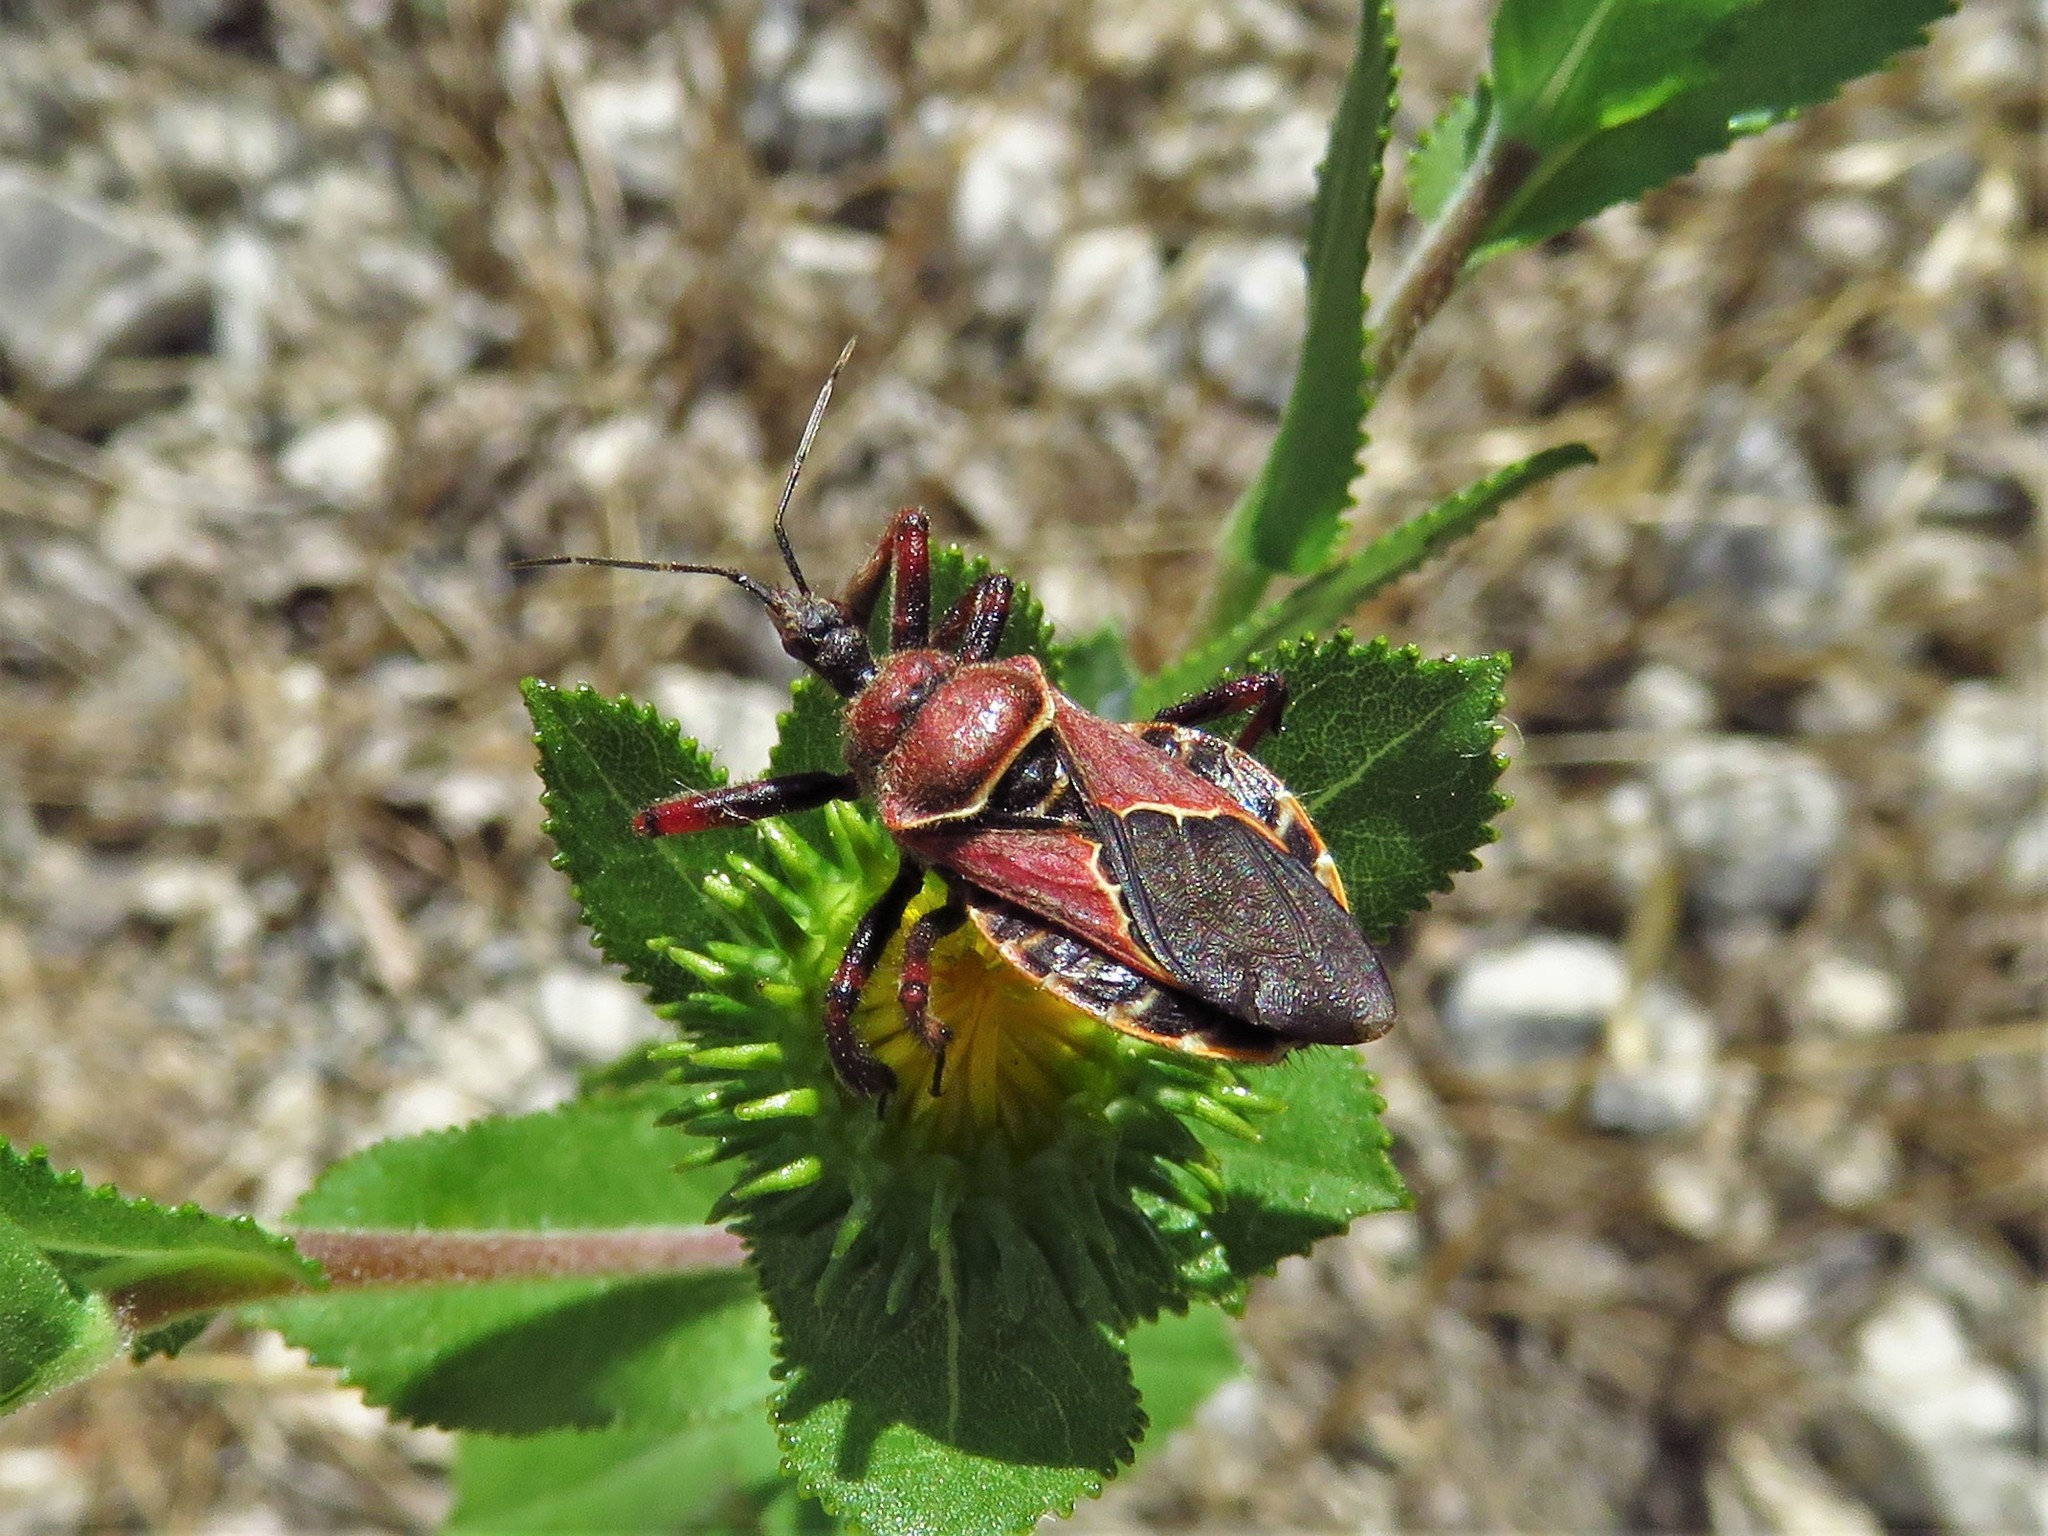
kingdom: Animalia
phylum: Arthropoda
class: Insecta
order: Hemiptera
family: Reduviidae
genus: Apiomerus
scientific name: Apiomerus spissipes
